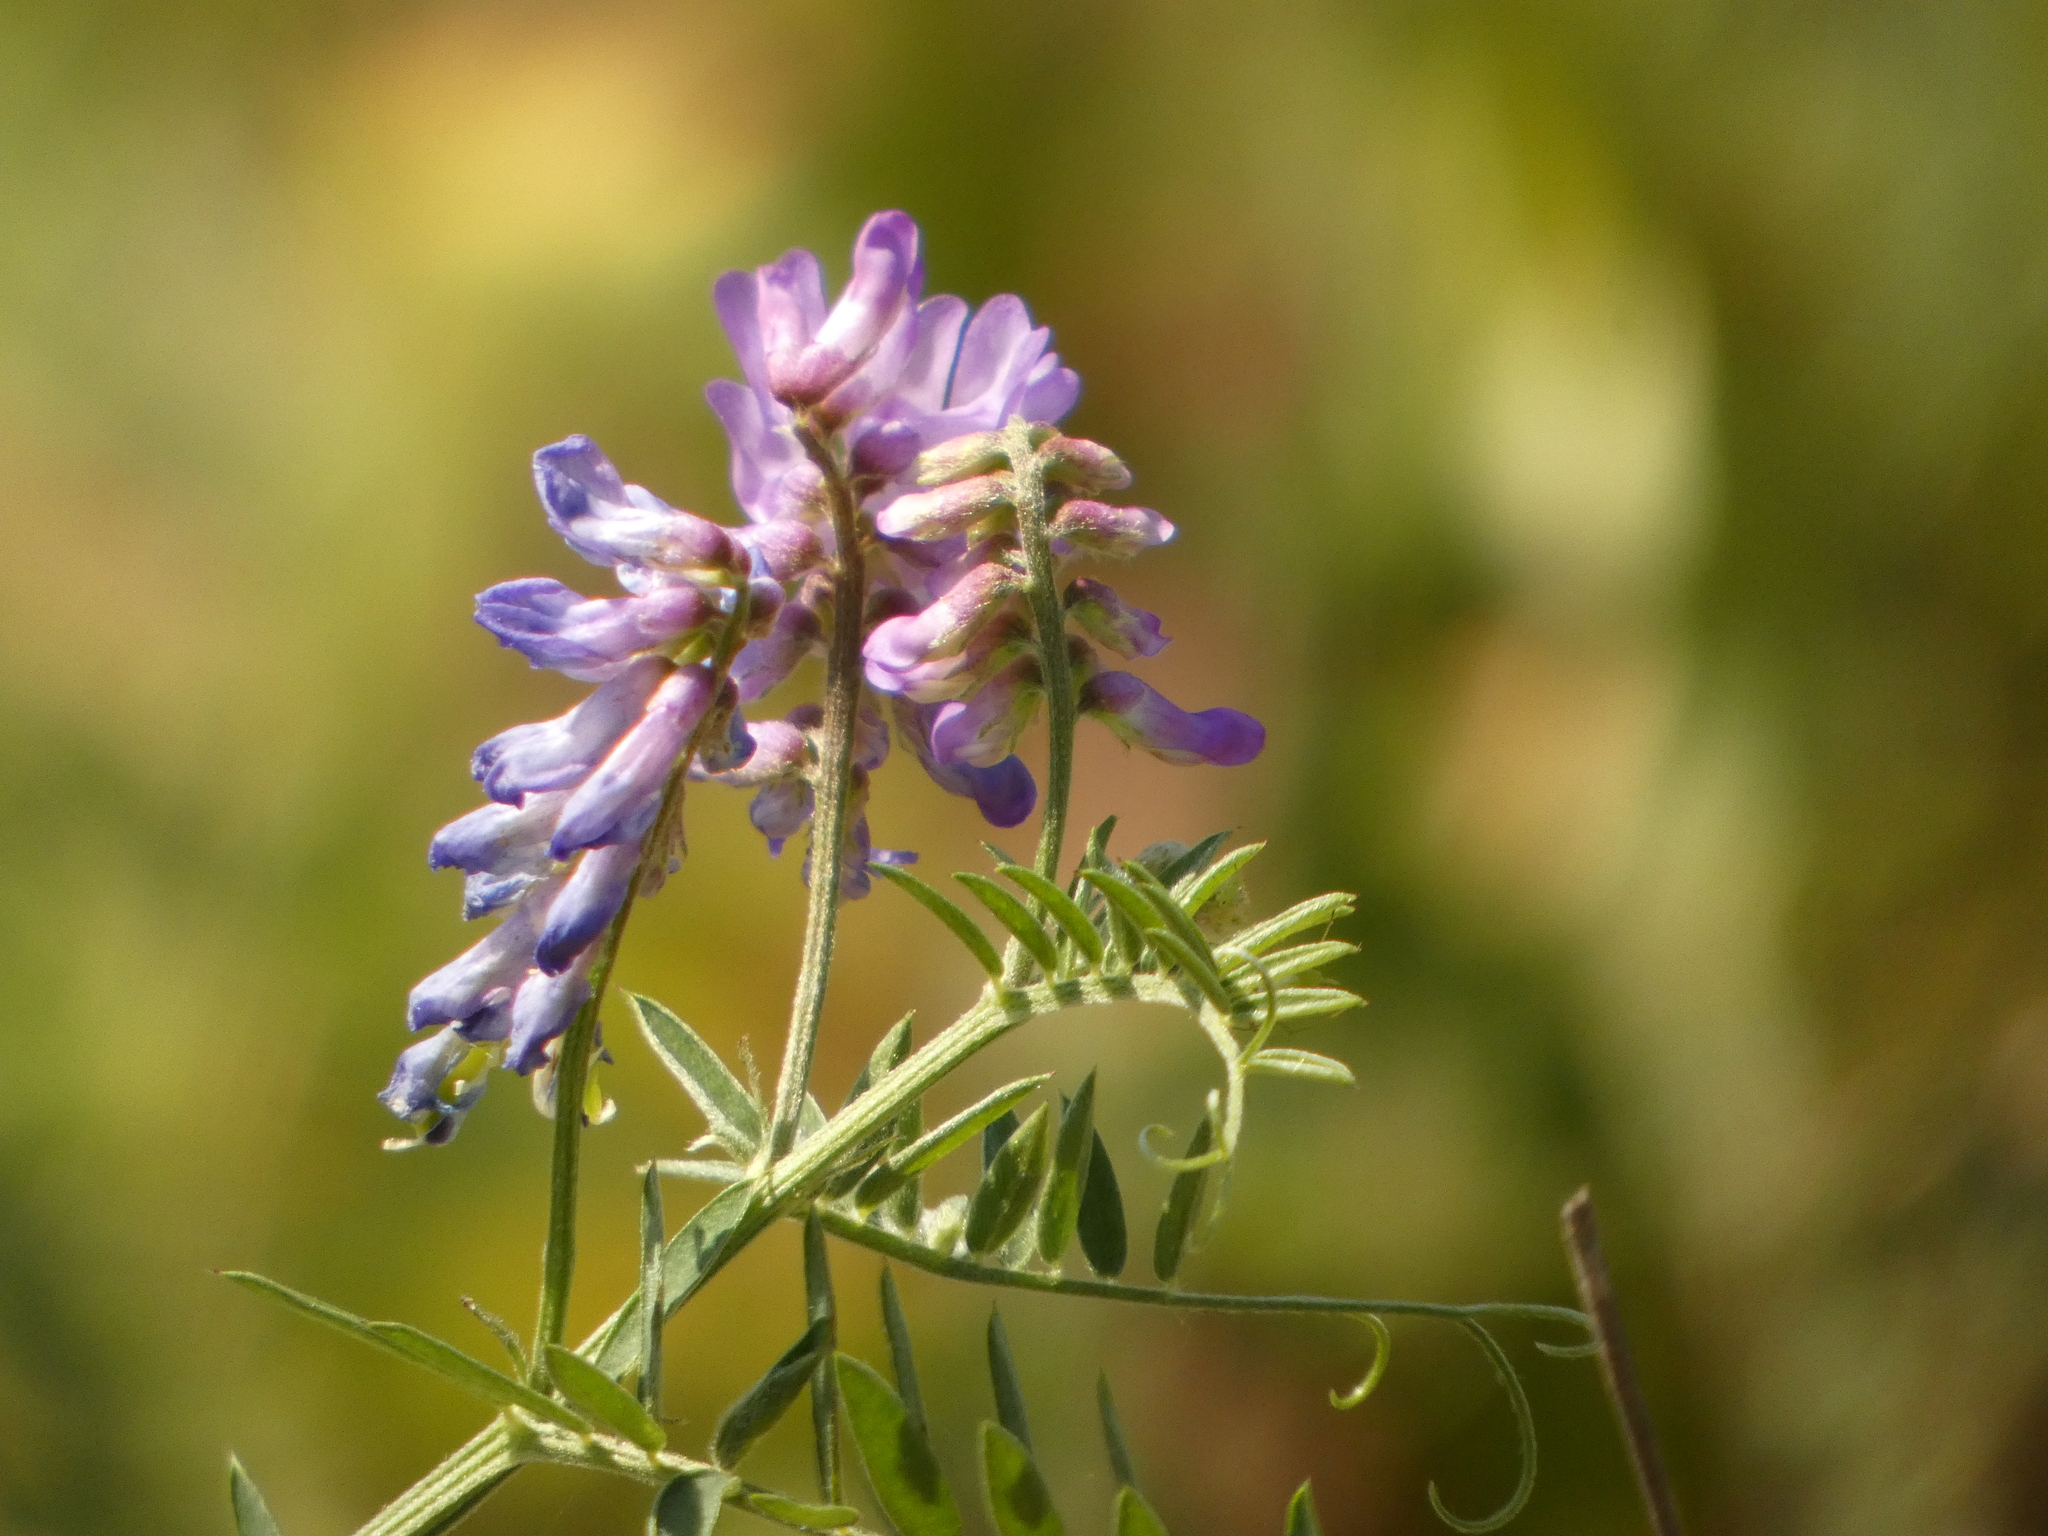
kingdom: Plantae
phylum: Tracheophyta
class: Magnoliopsida
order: Fabales
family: Fabaceae
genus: Vicia
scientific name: Vicia cracca
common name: Bird vetch
